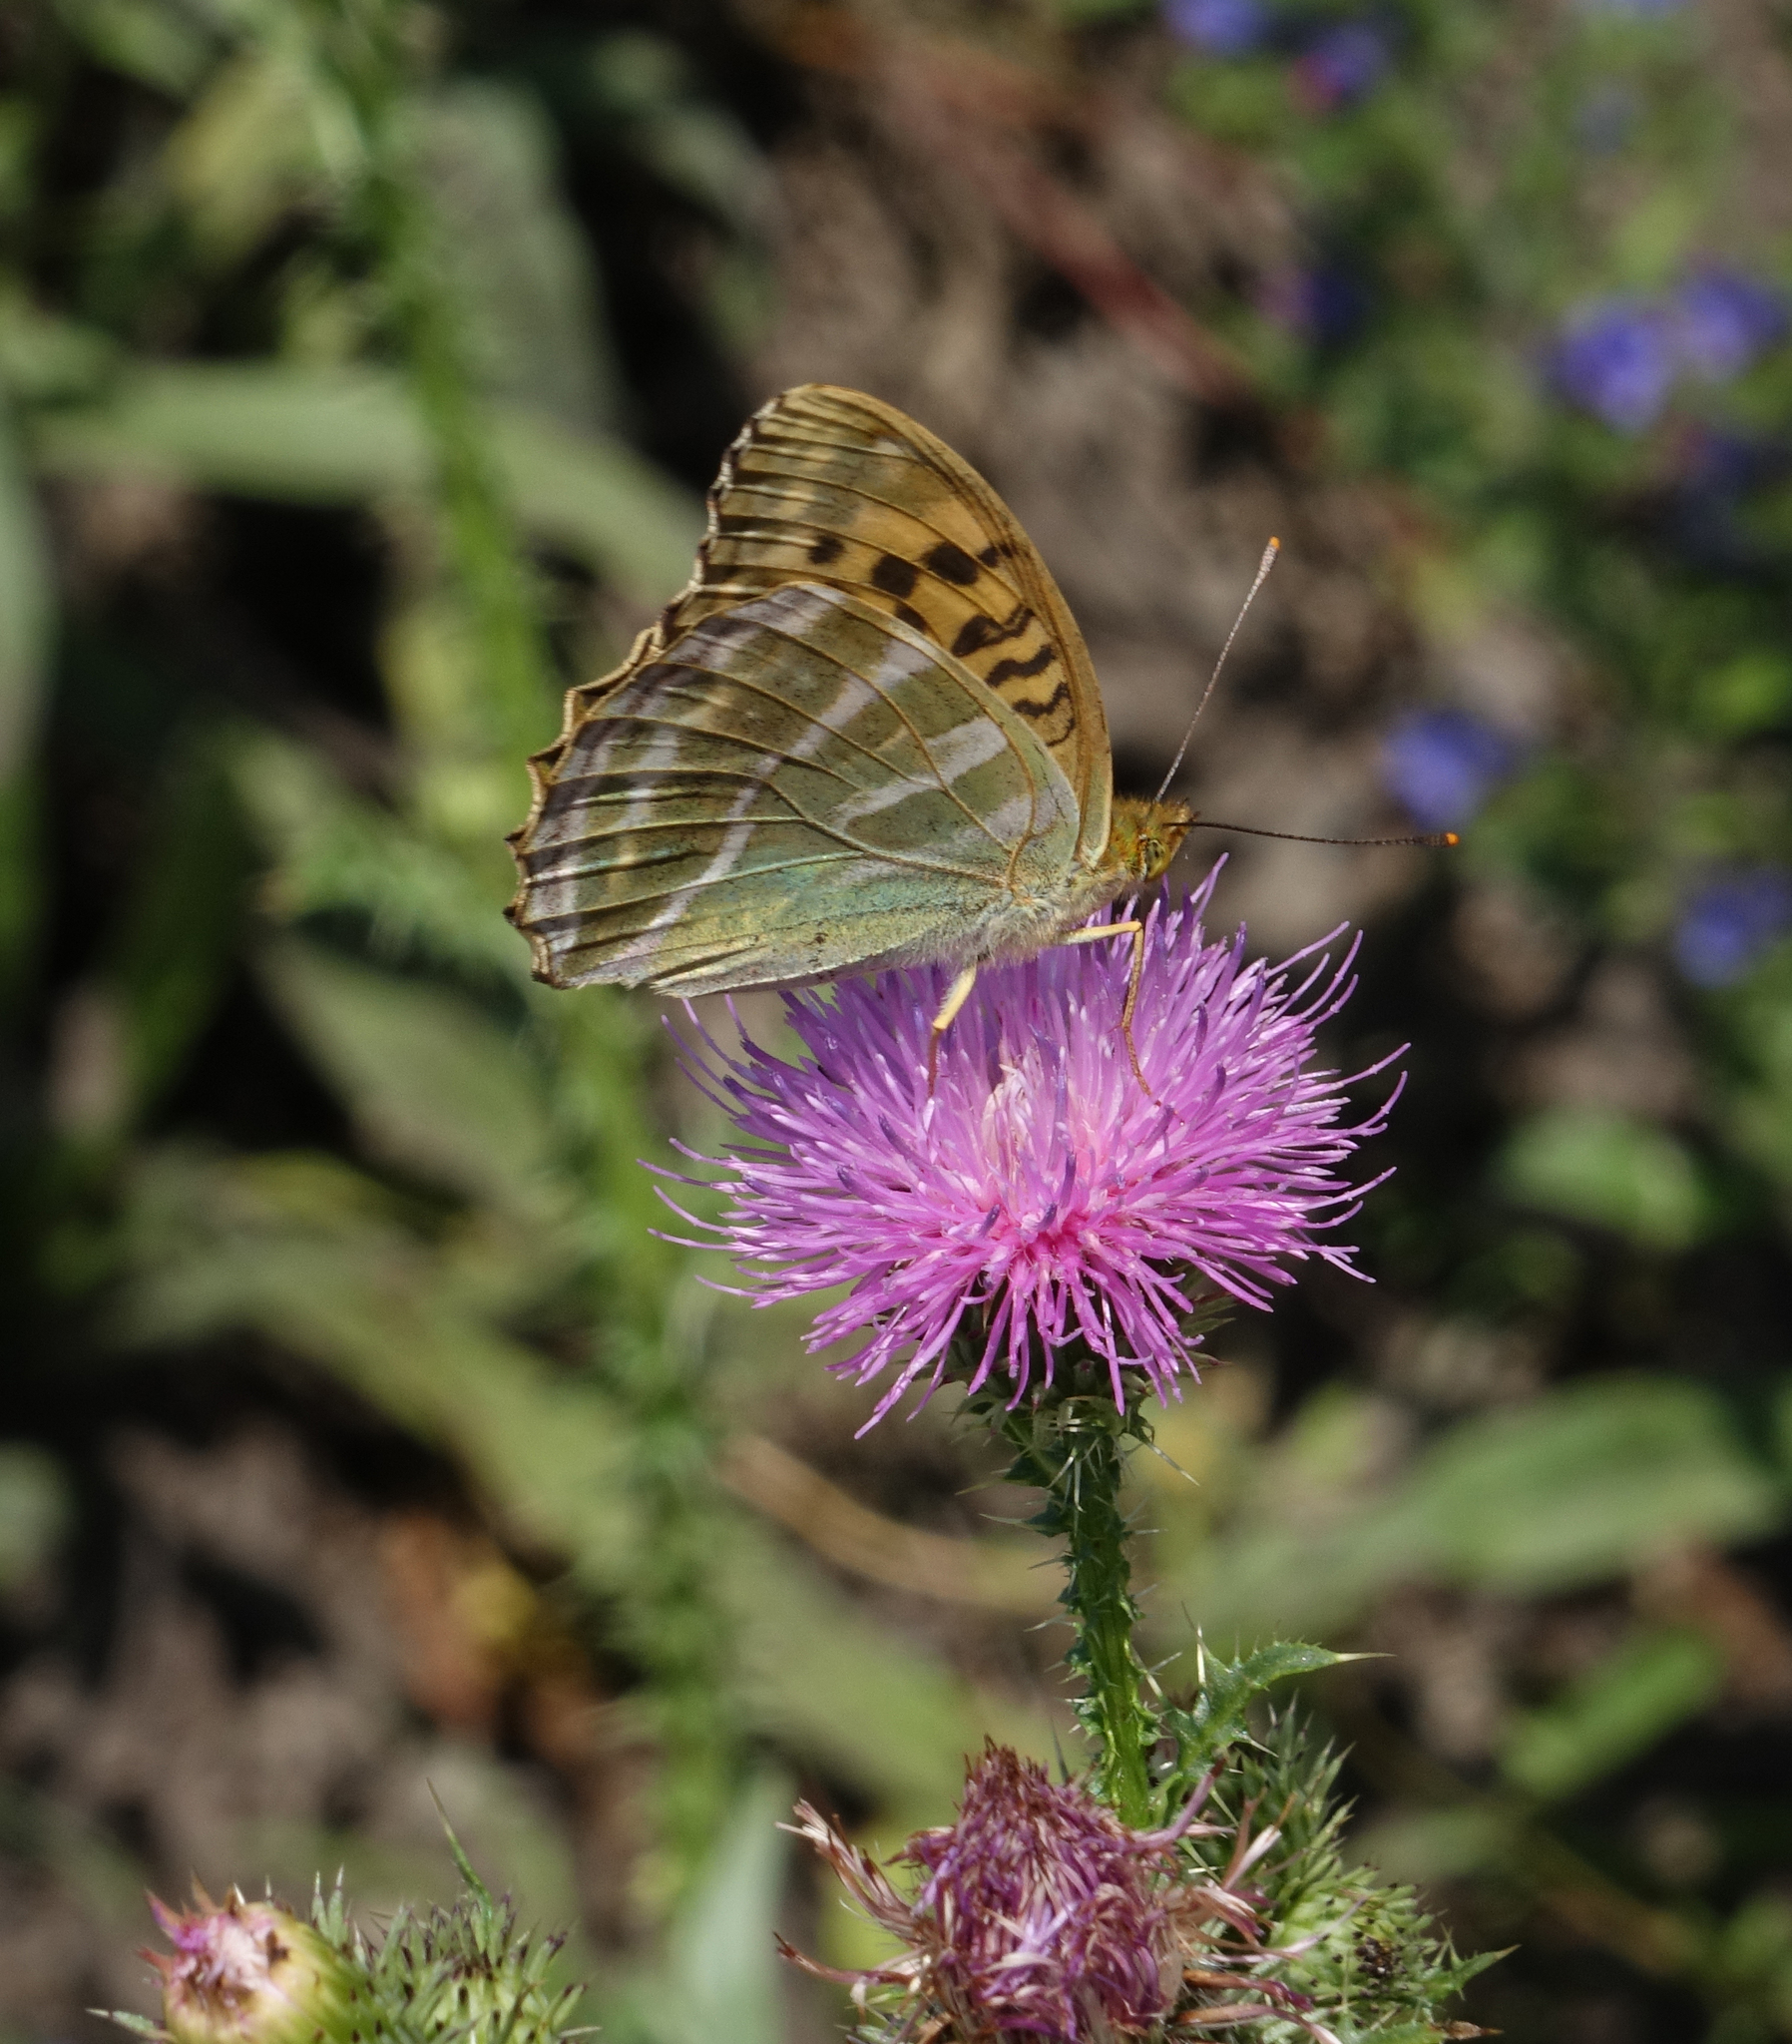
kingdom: Animalia
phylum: Arthropoda
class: Insecta
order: Lepidoptera
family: Nymphalidae
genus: Argynnis
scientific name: Argynnis paphia
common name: Silver-washed fritillary
